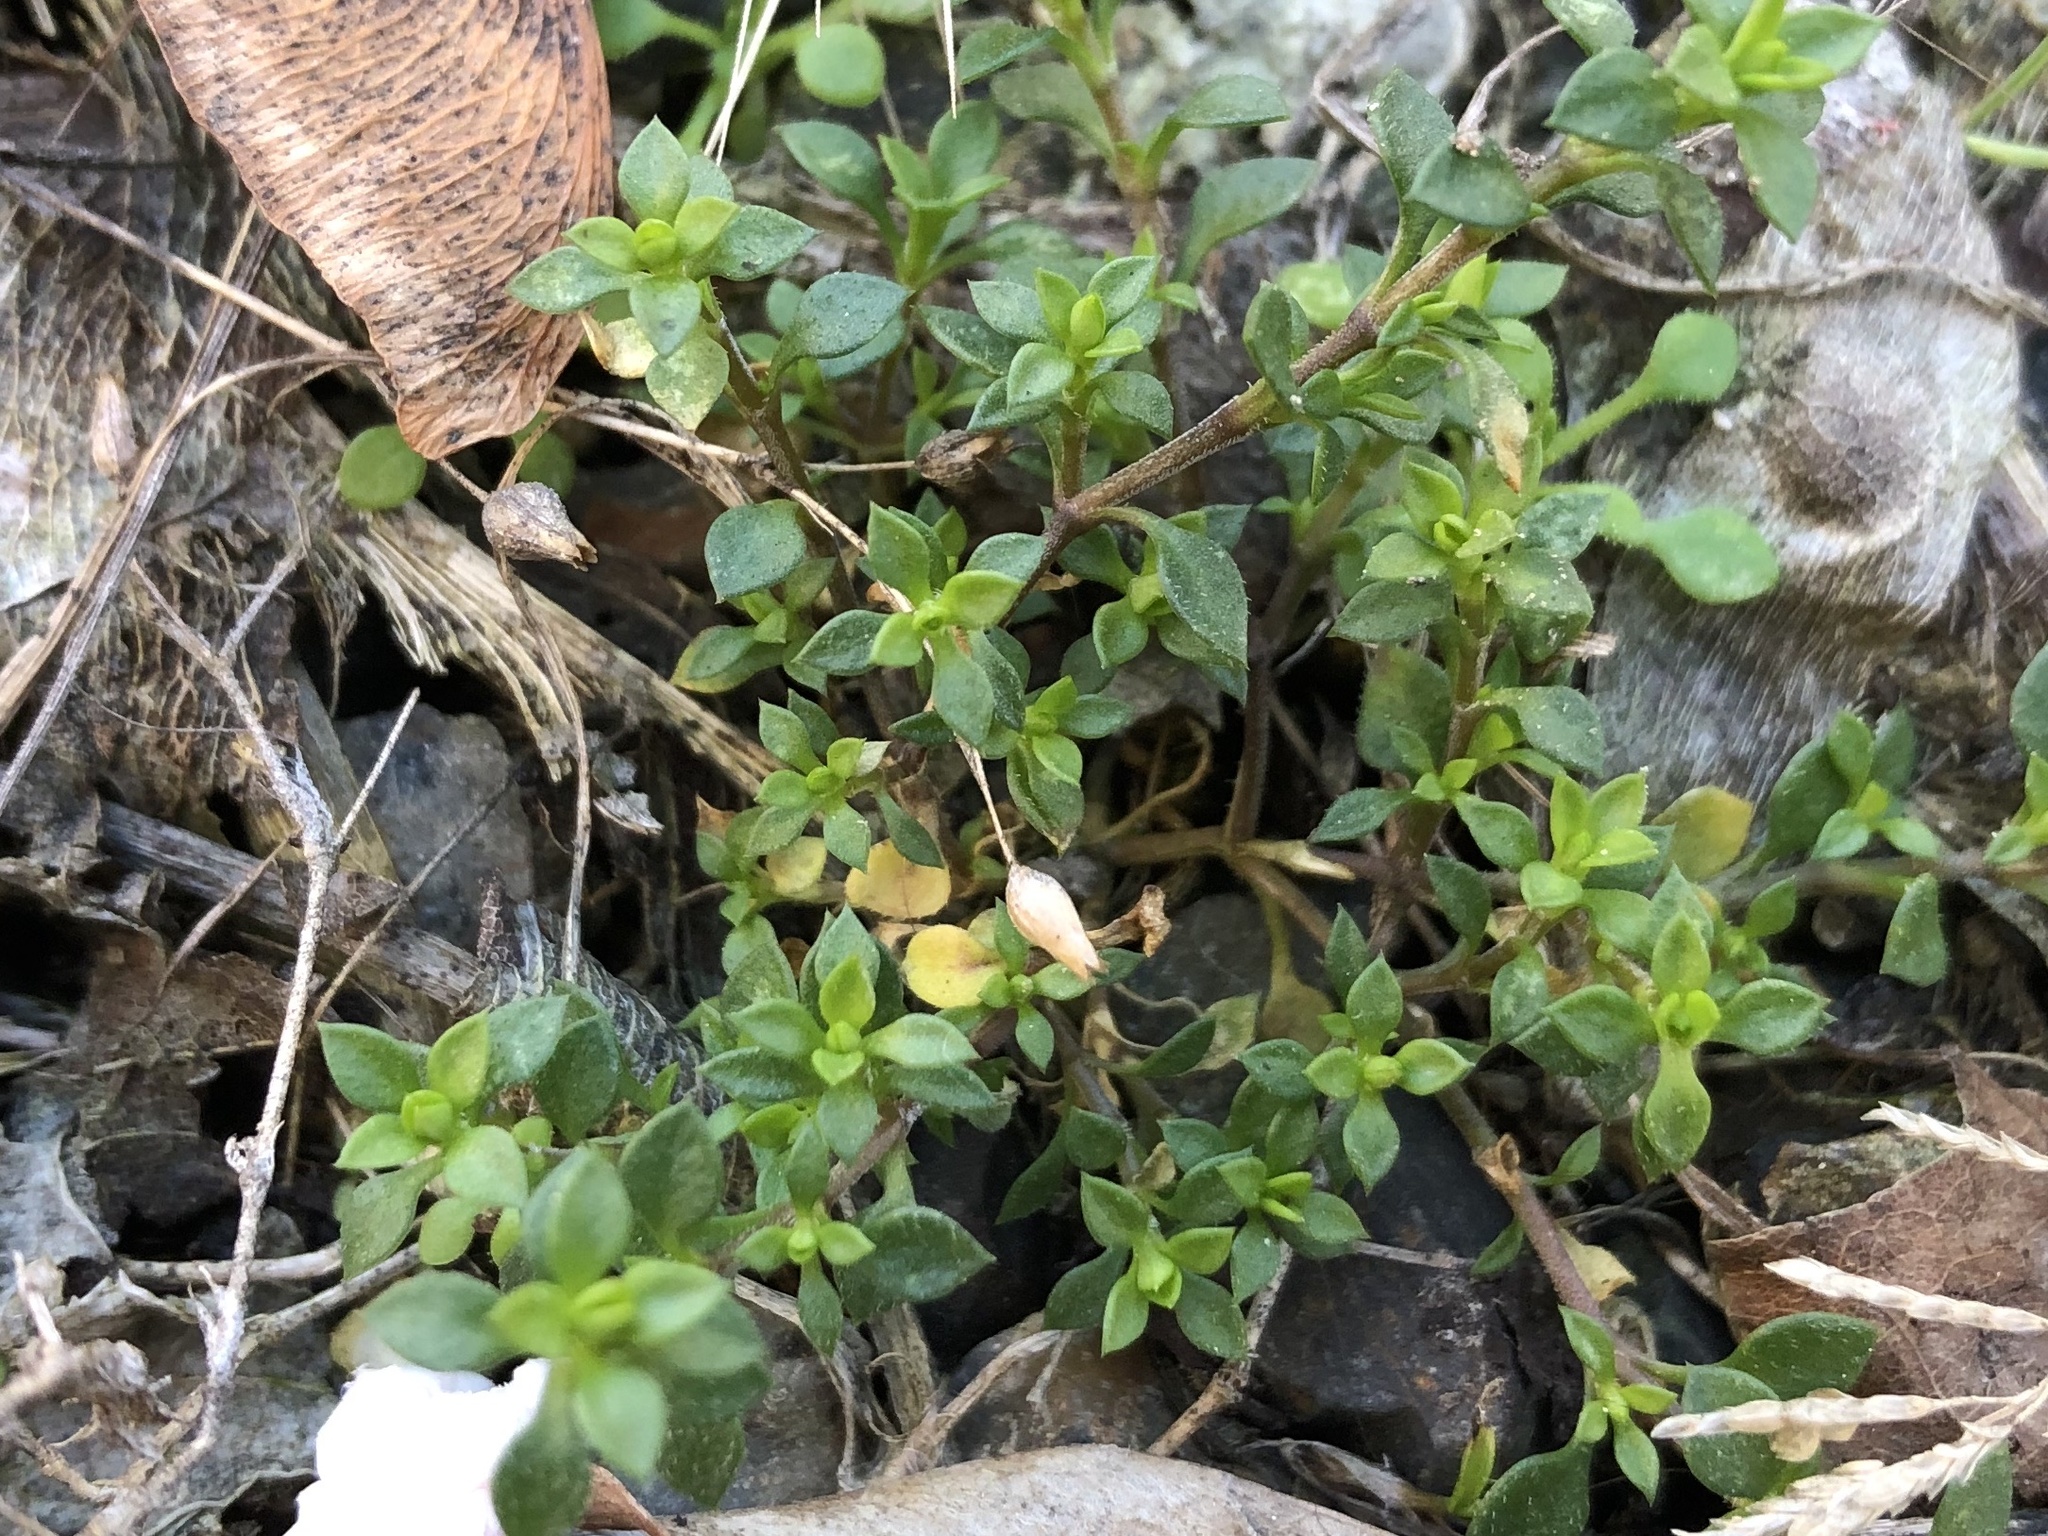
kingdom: Plantae
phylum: Tracheophyta
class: Magnoliopsida
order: Caryophyllales
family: Caryophyllaceae
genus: Stellaria
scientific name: Stellaria media
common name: Common chickweed
